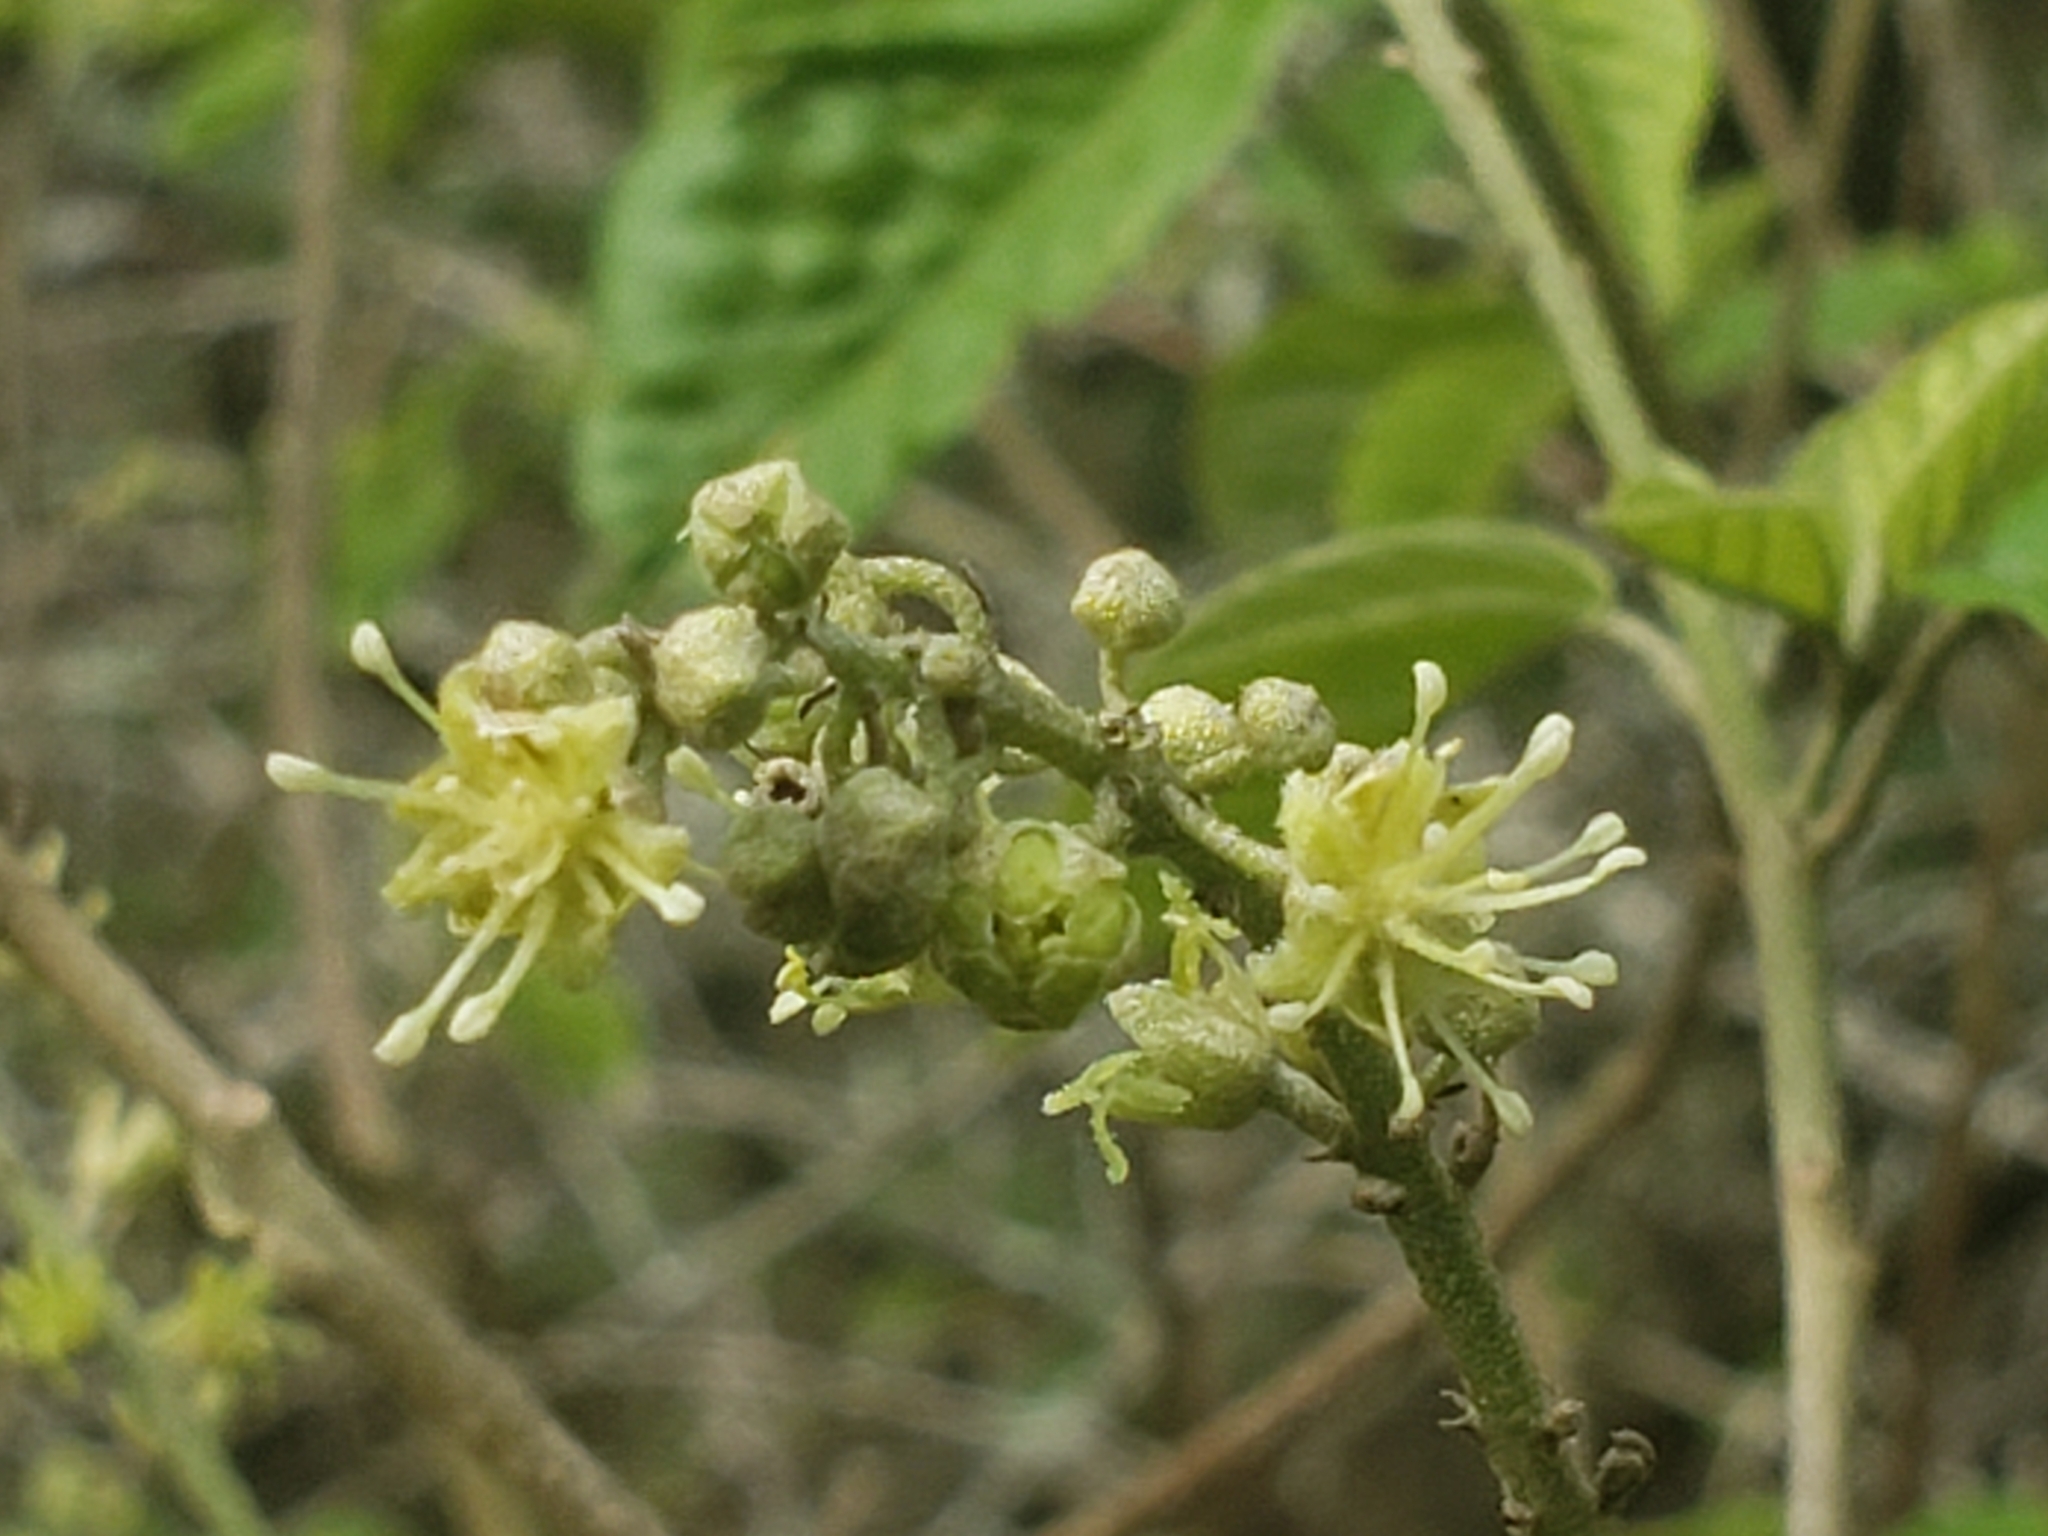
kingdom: Plantae
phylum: Tracheophyta
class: Magnoliopsida
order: Malpighiales
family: Euphorbiaceae
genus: Croton
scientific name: Croton steenkampianus
